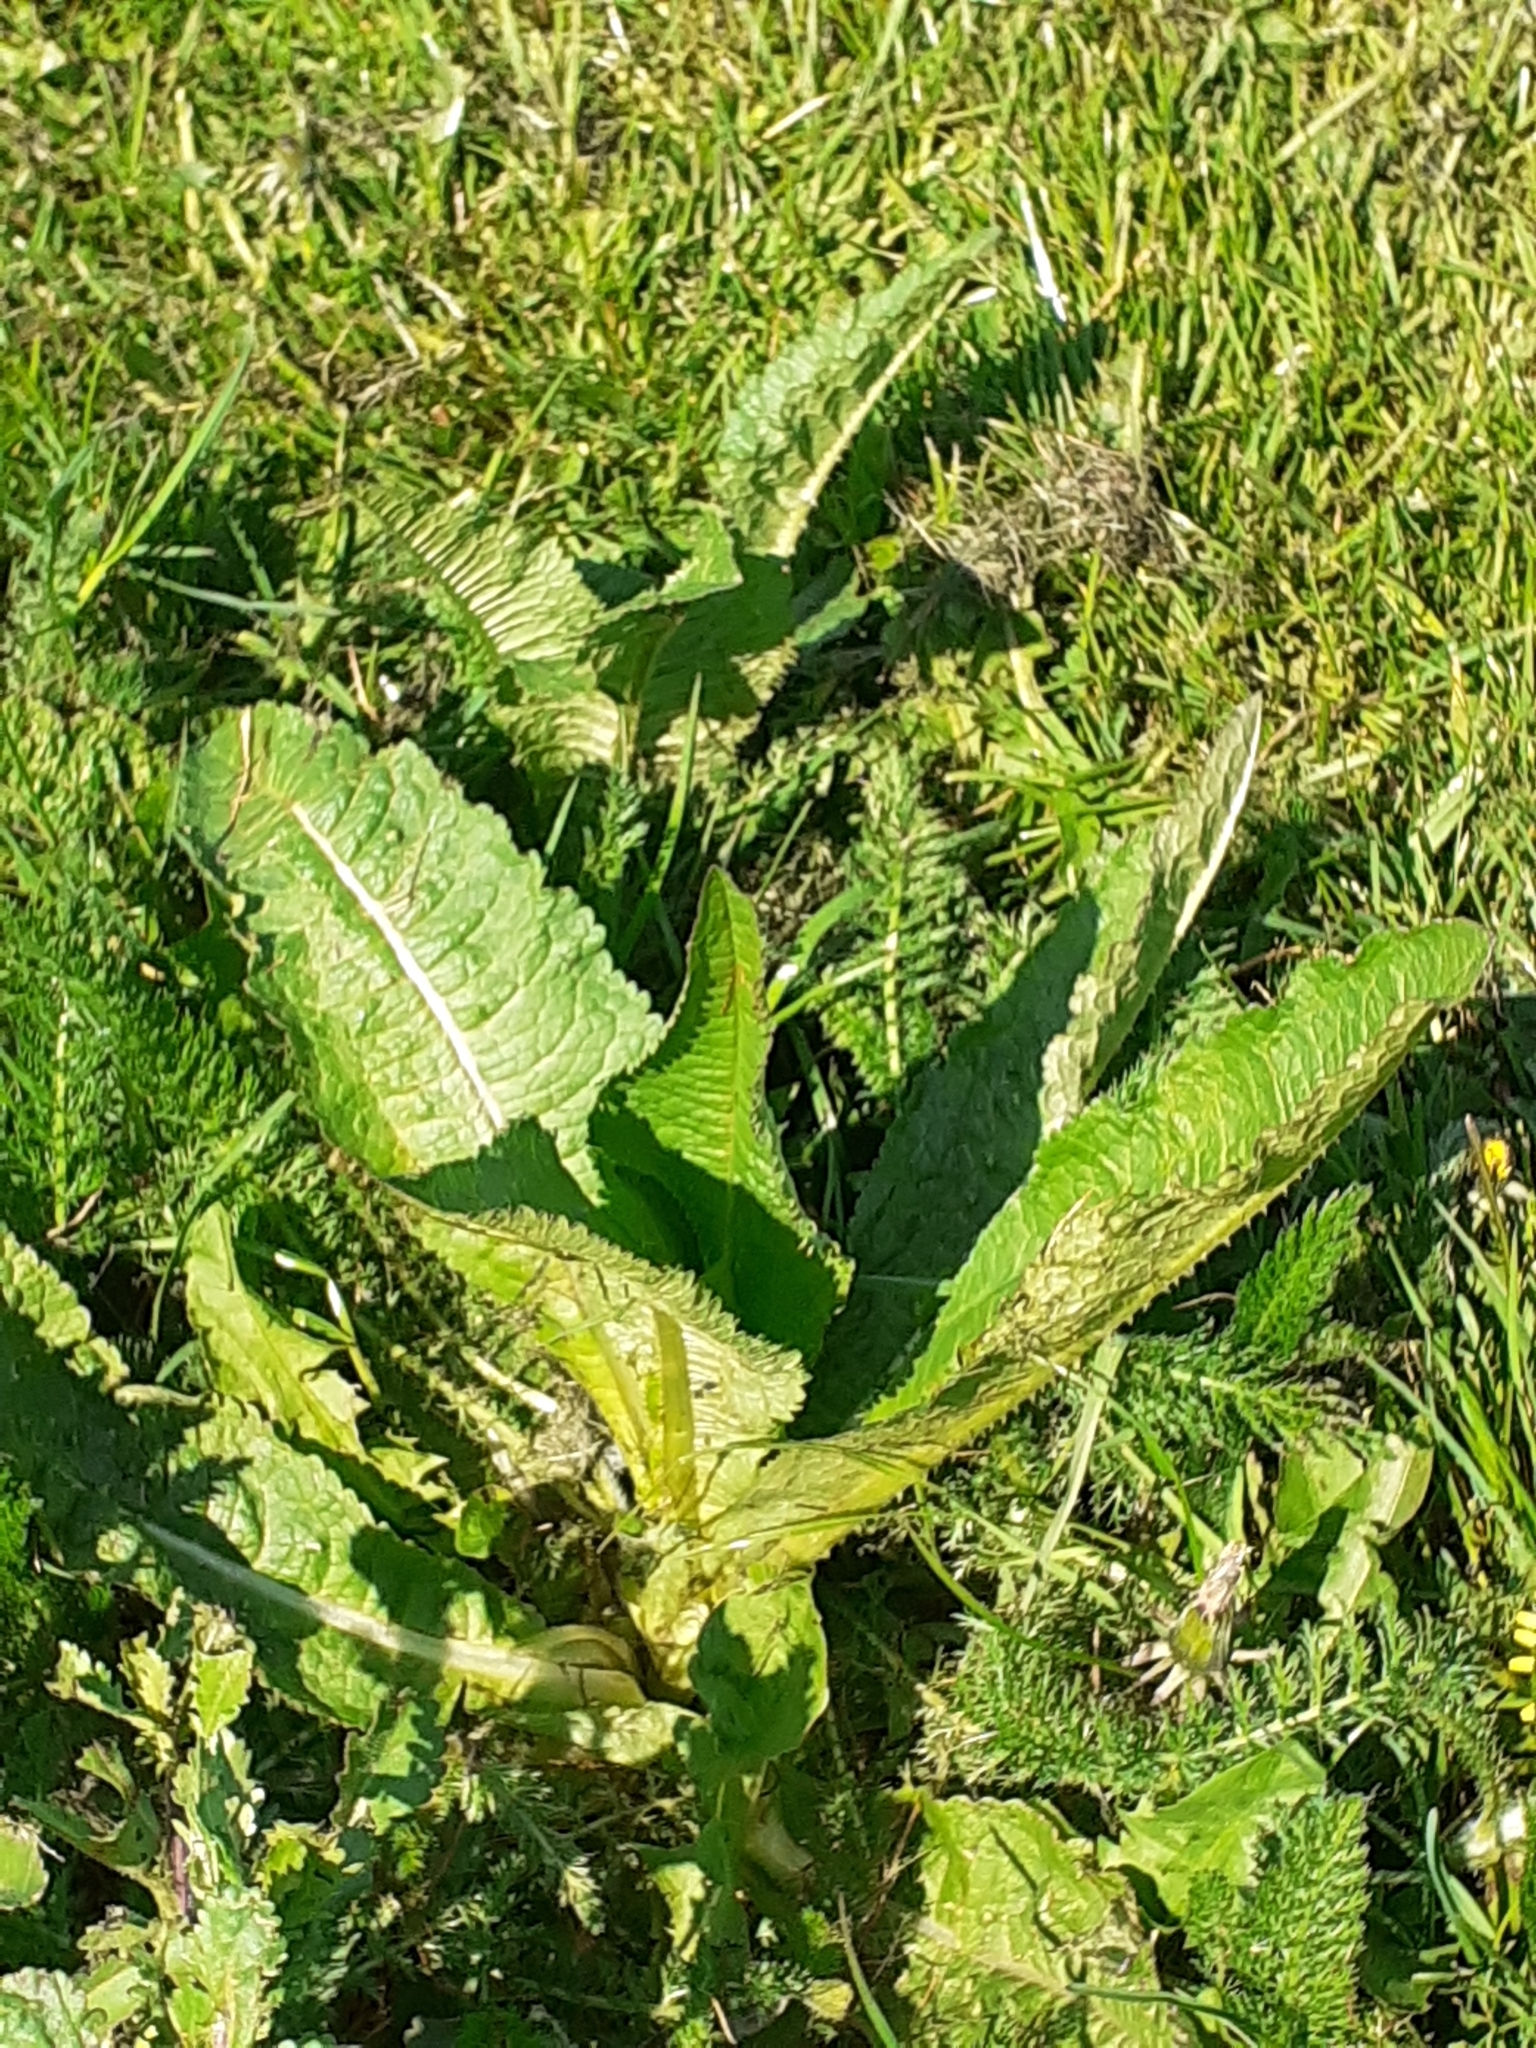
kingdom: Plantae
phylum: Tracheophyta
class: Magnoliopsida
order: Dipsacales
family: Caprifoliaceae
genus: Dipsacus
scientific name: Dipsacus fullonum
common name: Teasel
